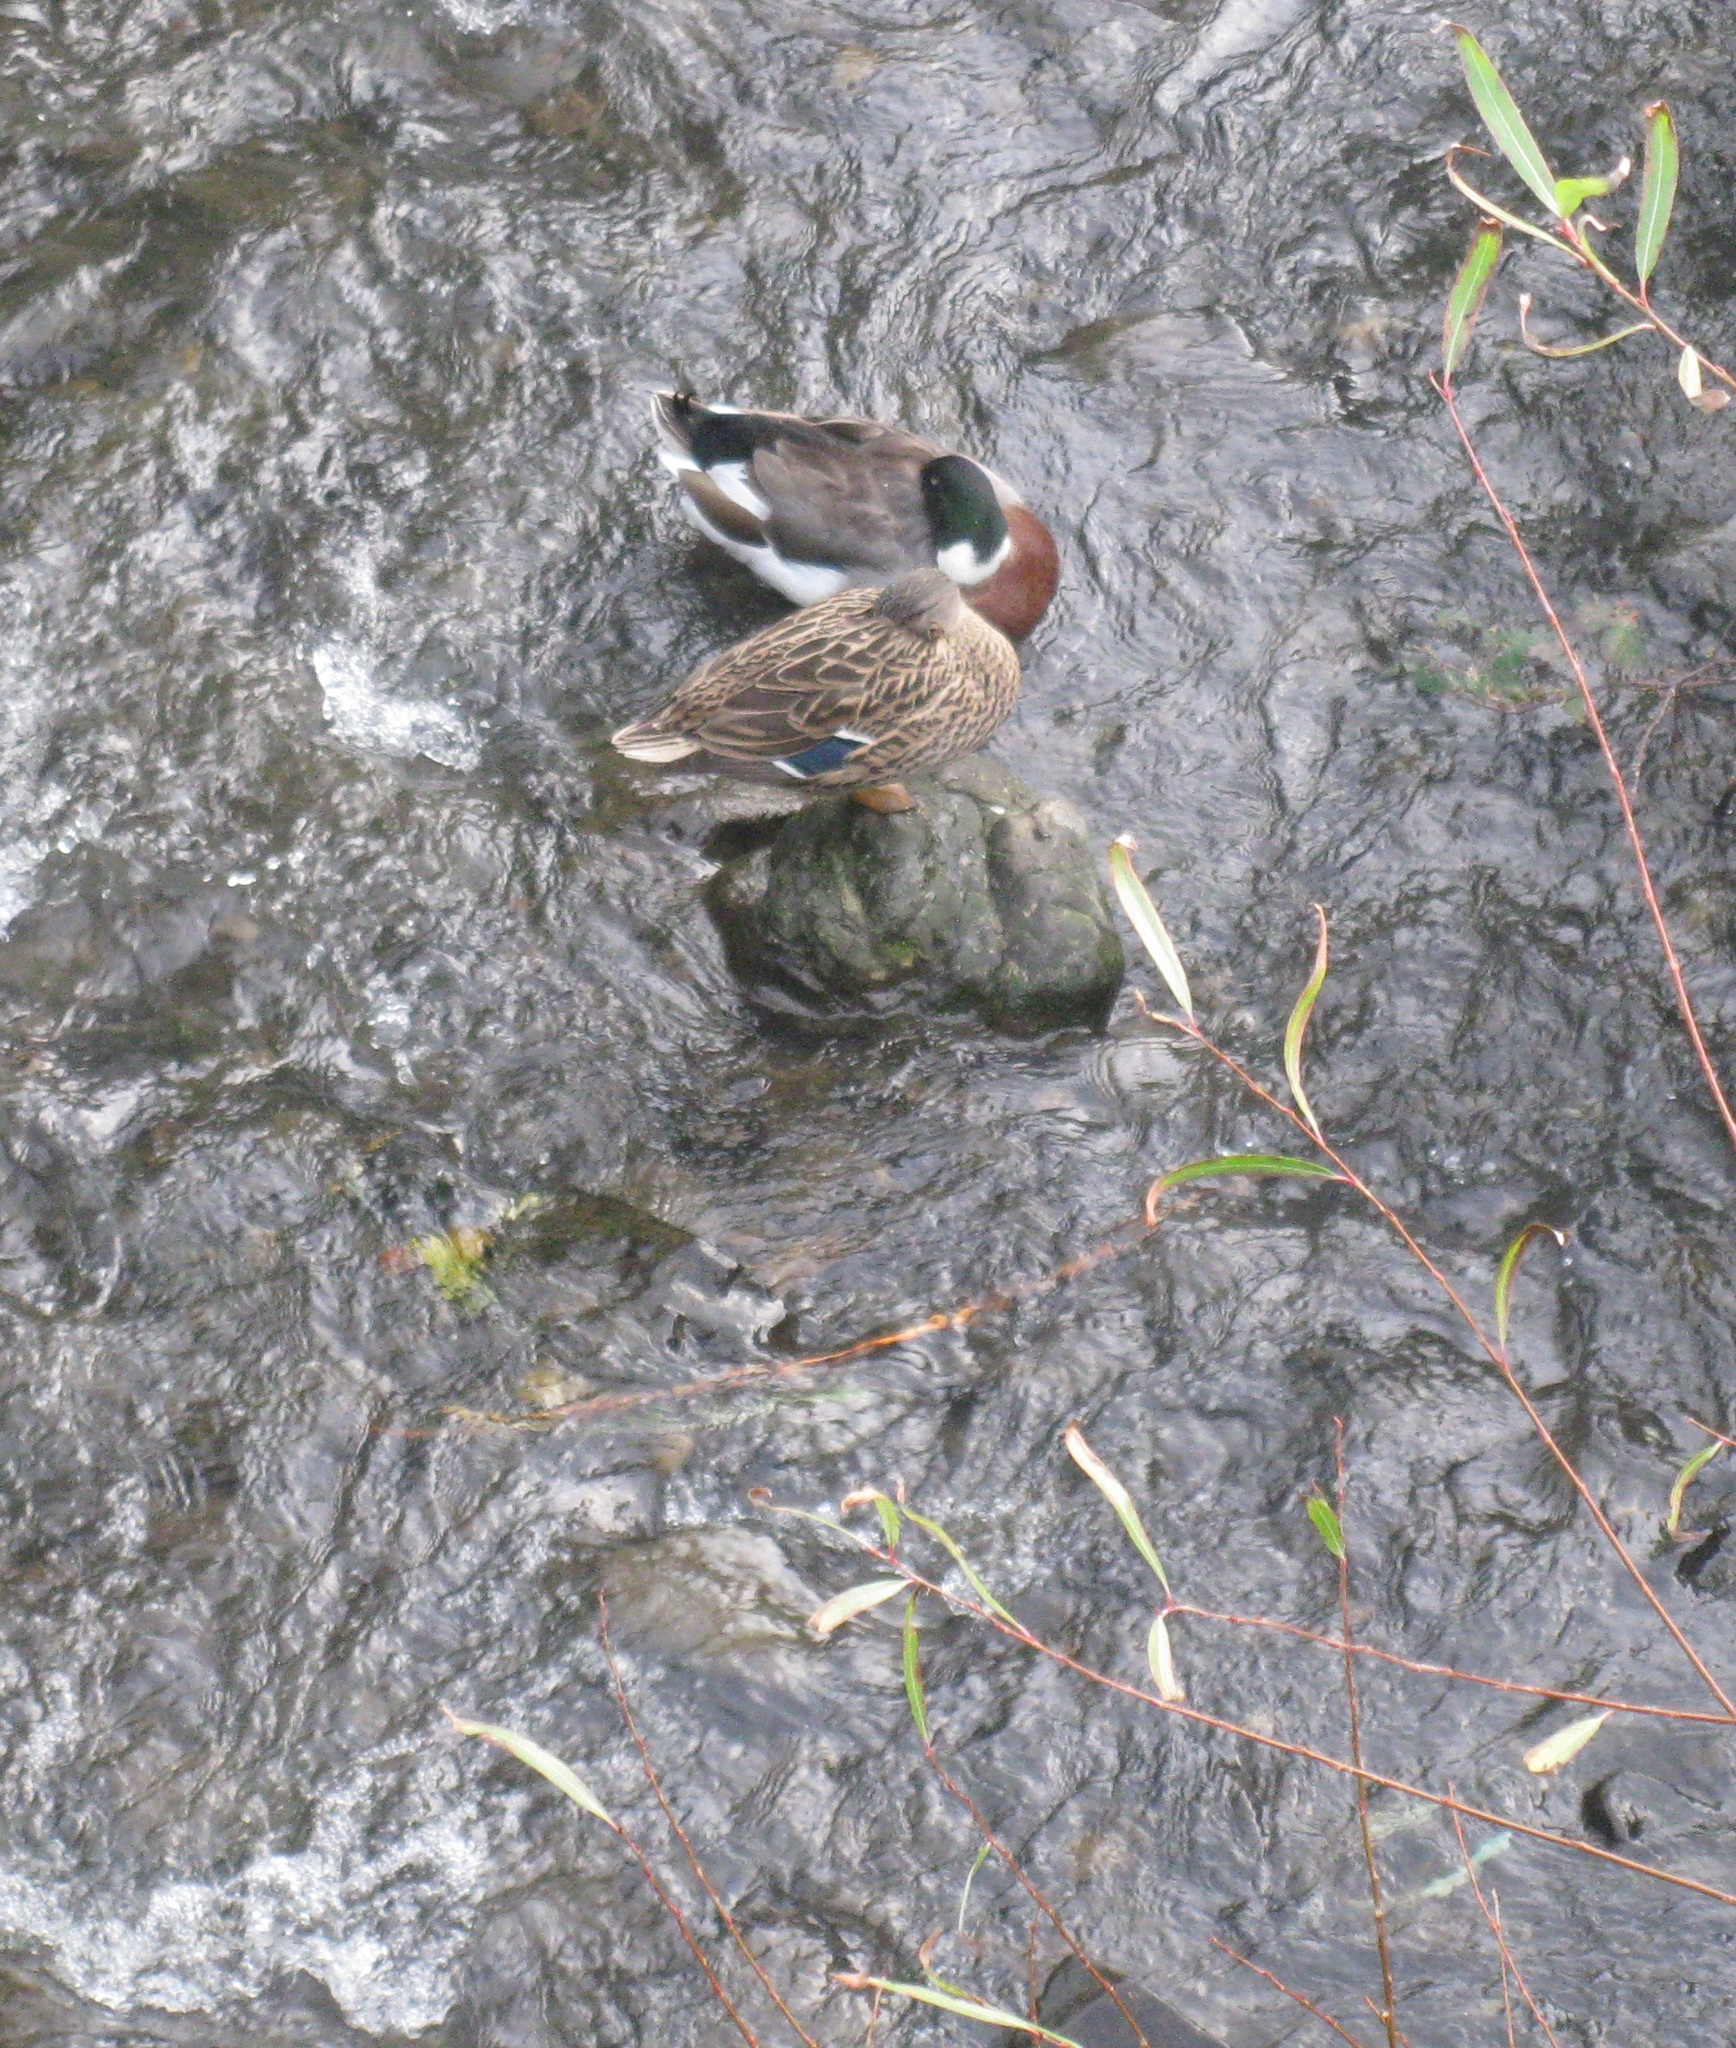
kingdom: Animalia
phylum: Chordata
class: Aves
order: Anseriformes
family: Anatidae
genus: Anas
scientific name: Anas platyrhynchos
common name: Mallard
